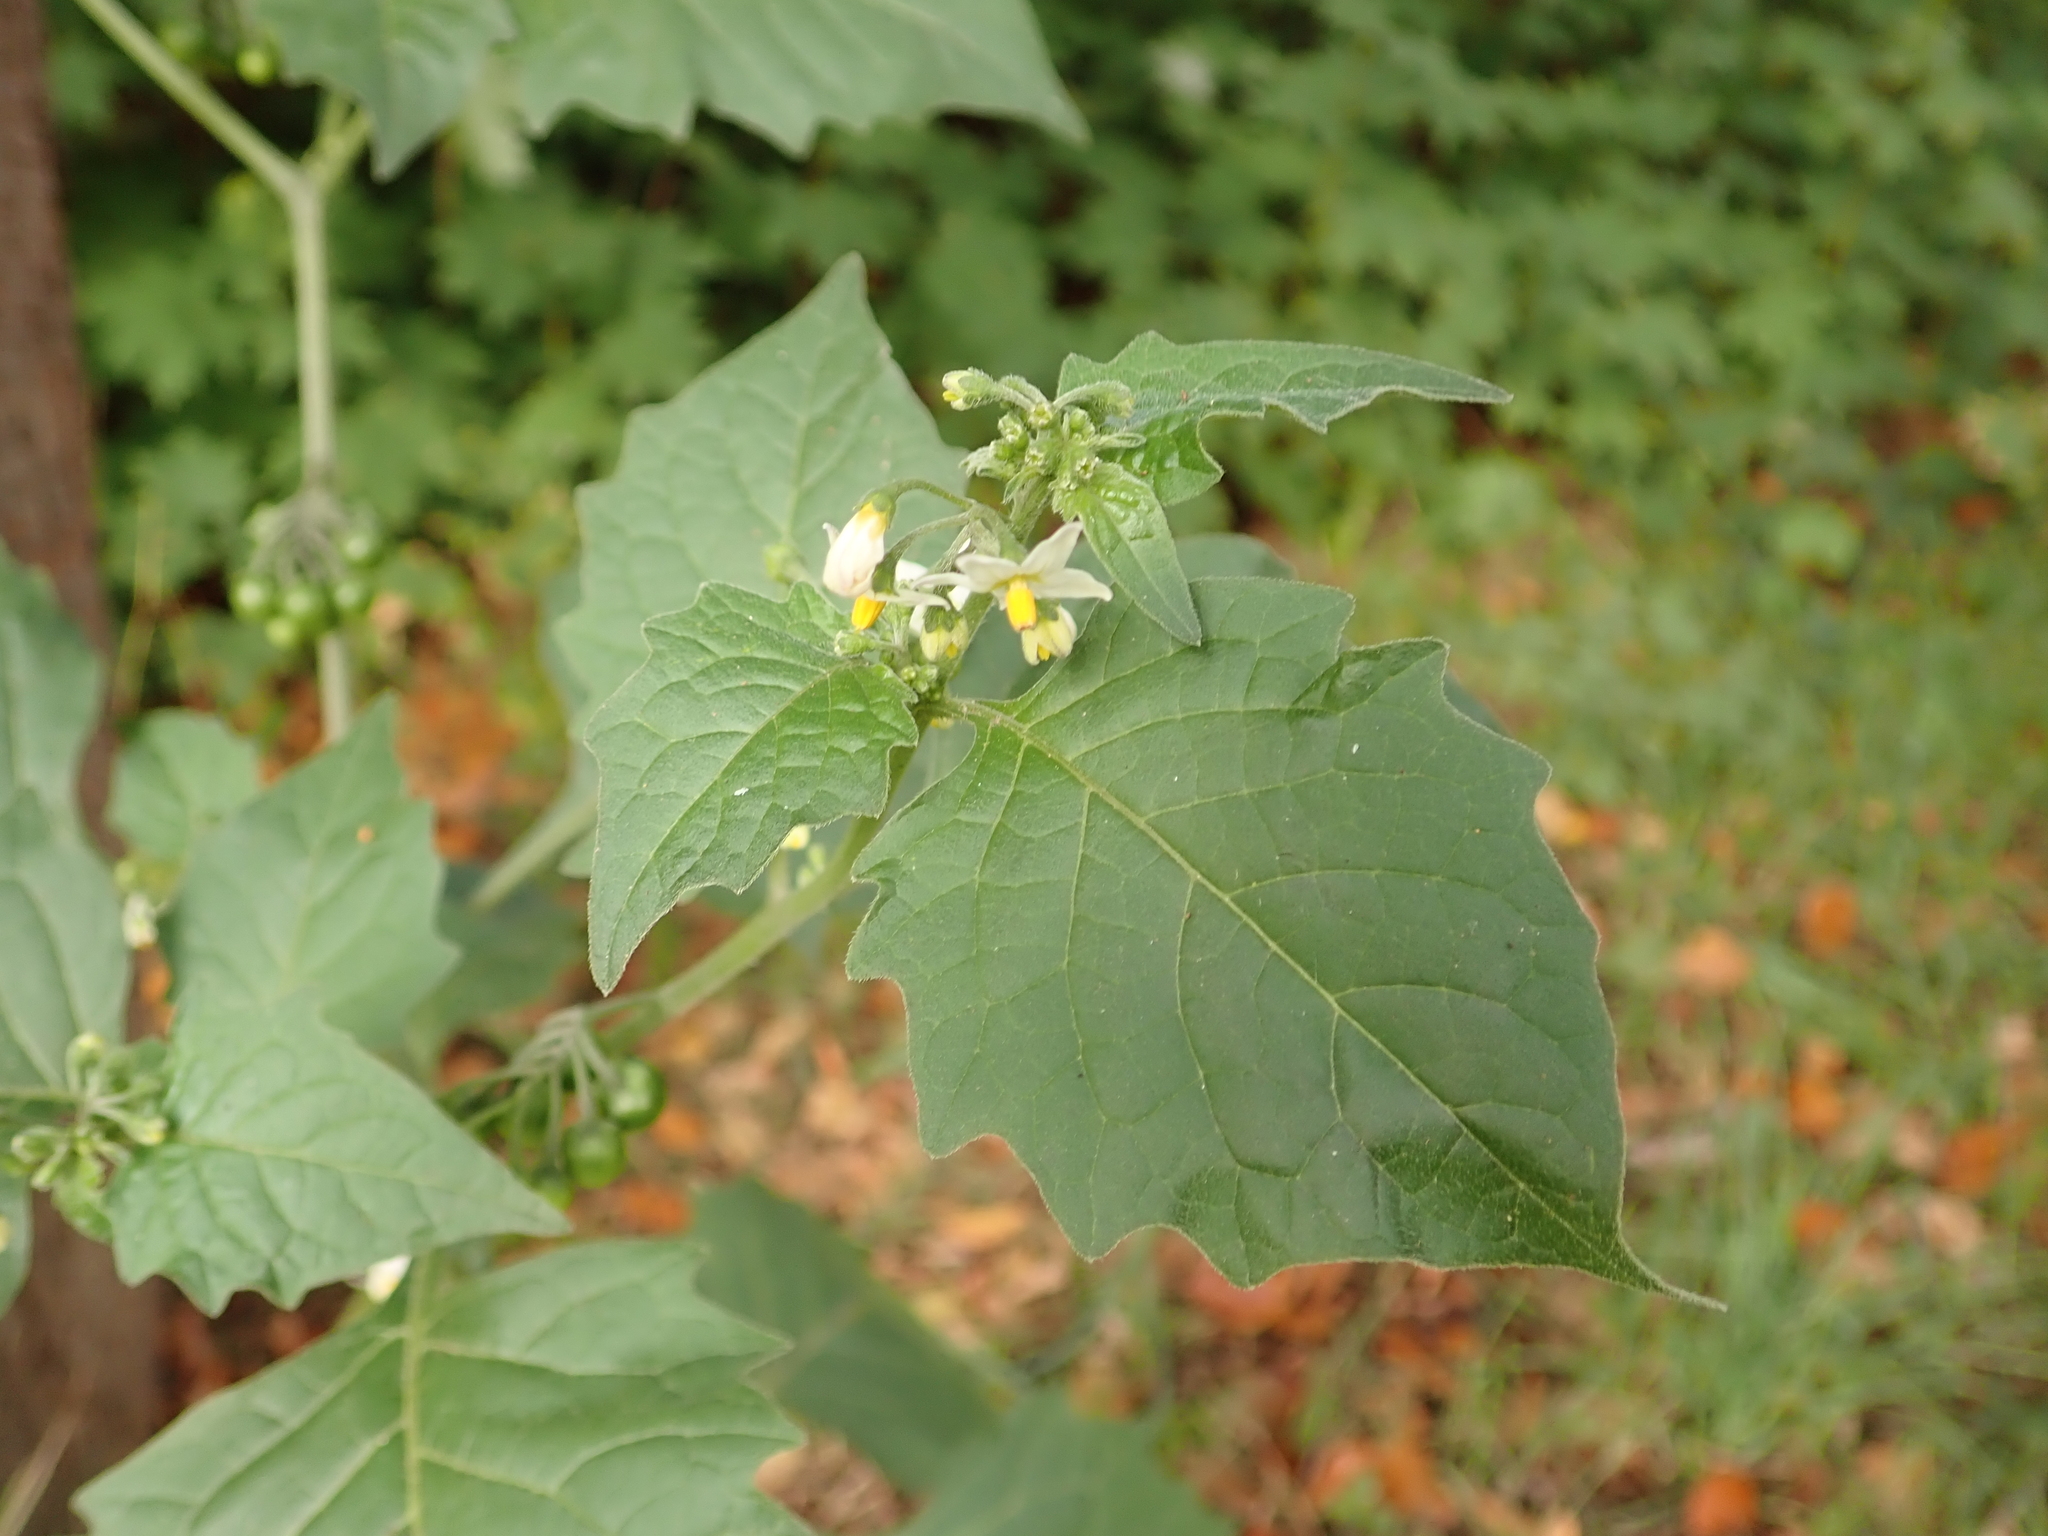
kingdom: Plantae
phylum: Tracheophyta
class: Magnoliopsida
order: Solanales
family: Solanaceae
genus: Solanum
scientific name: Solanum nigrum
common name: Black nightshade
